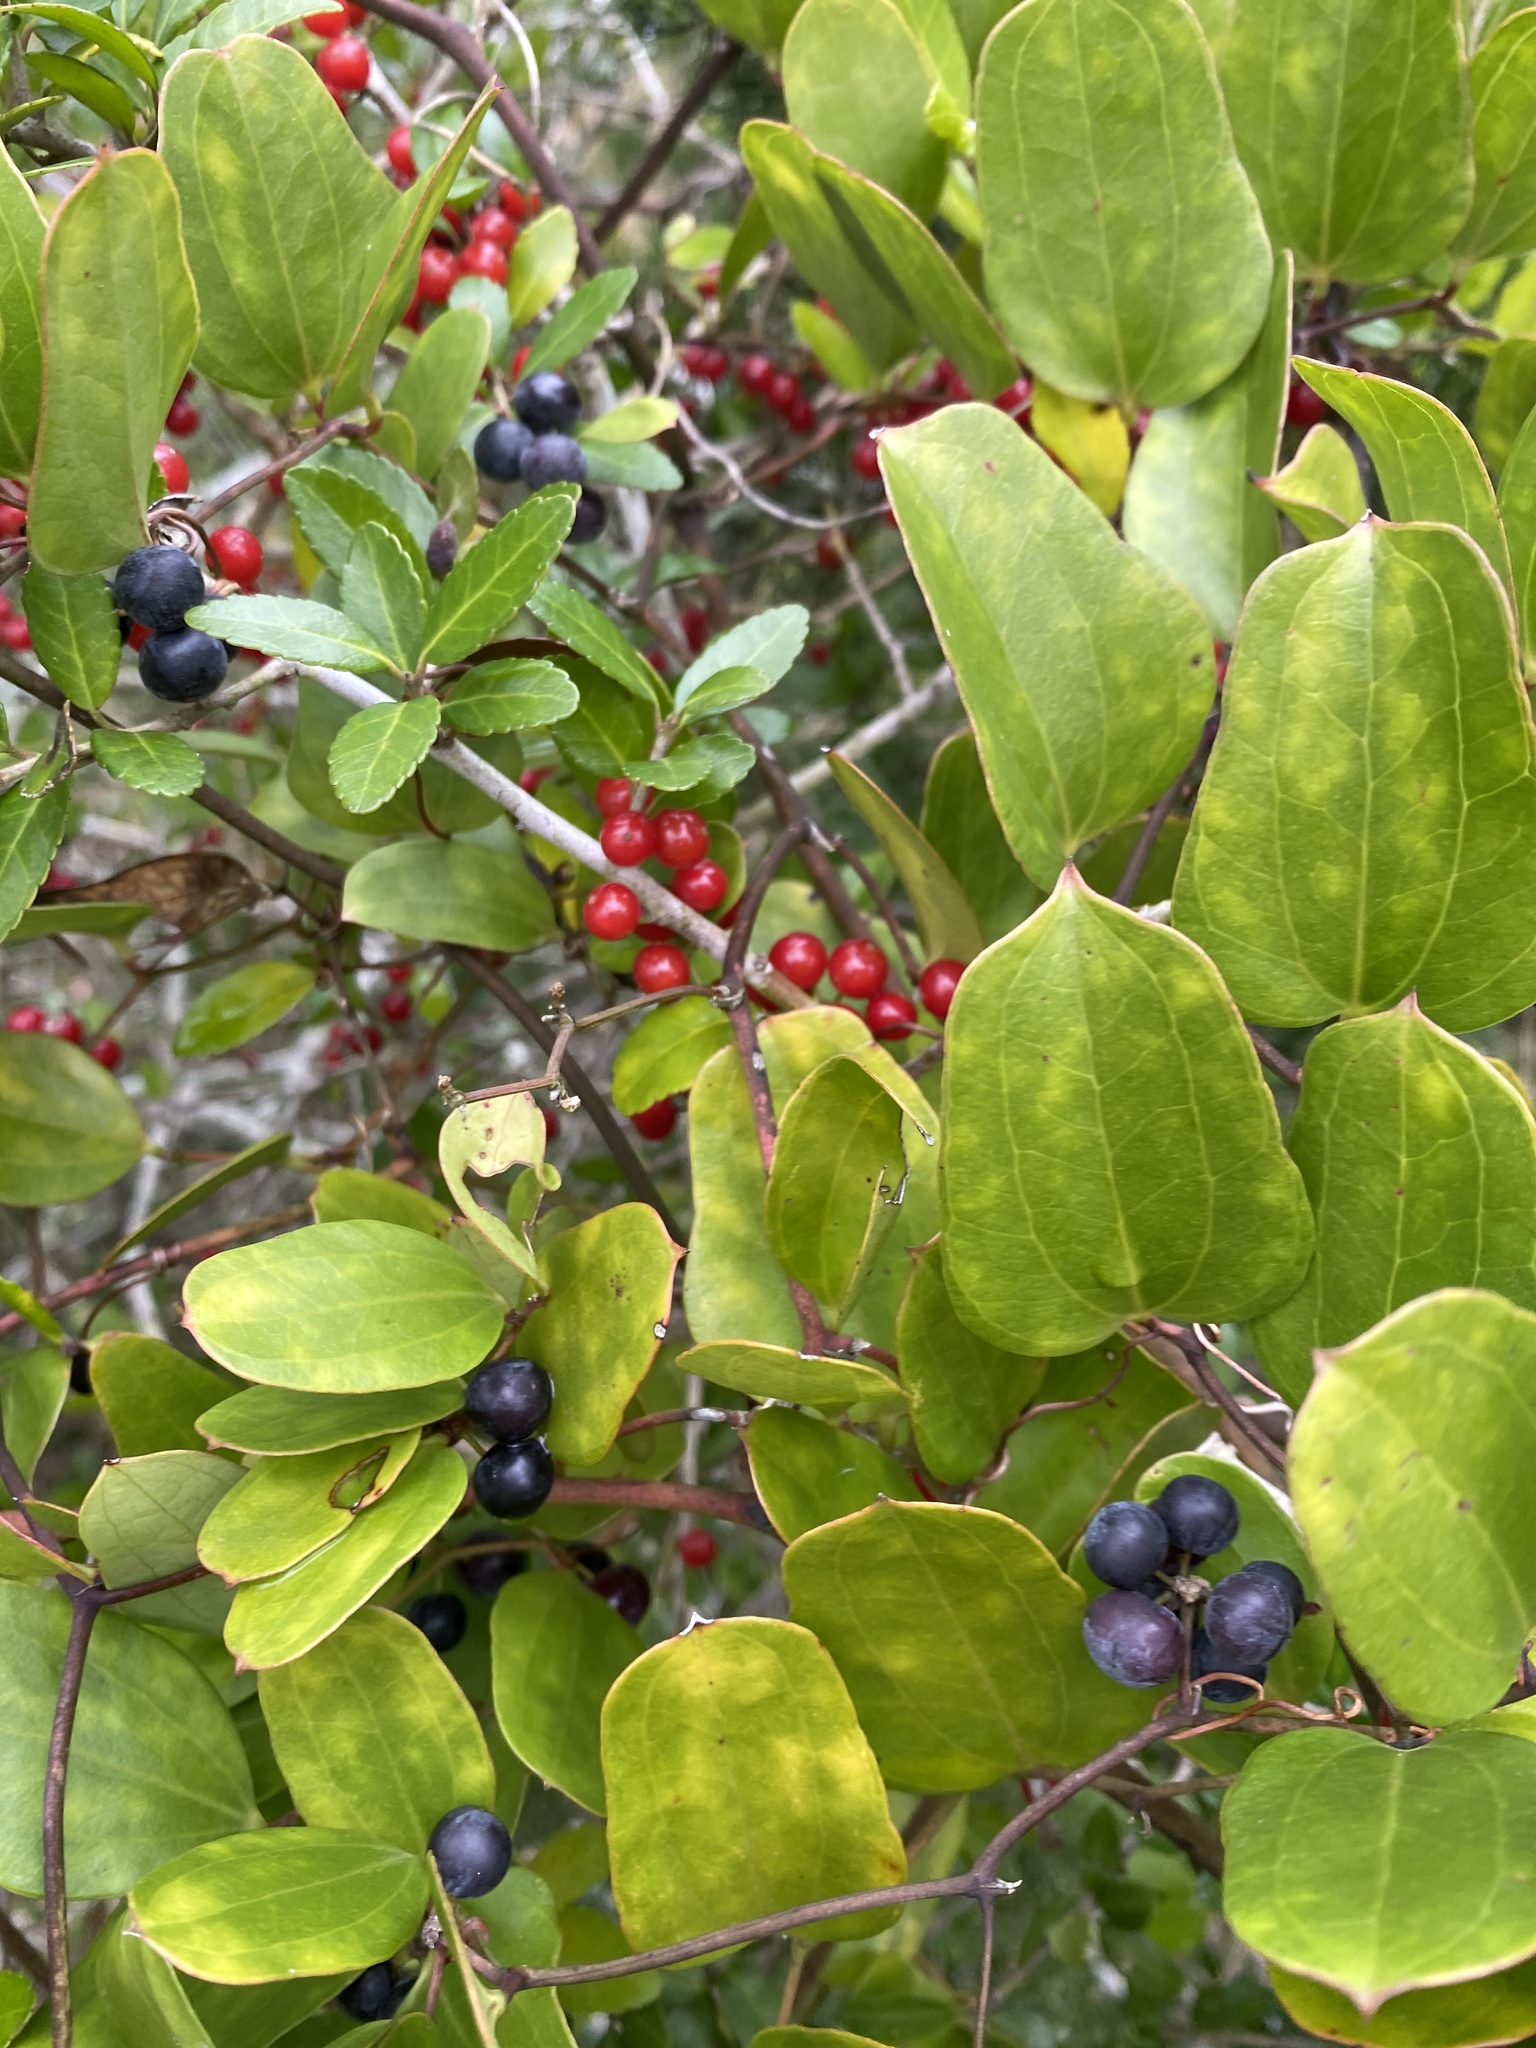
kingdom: Plantae
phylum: Tracheophyta
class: Magnoliopsida
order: Aquifoliales
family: Aquifoliaceae
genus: Ilex
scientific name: Ilex vomitoria
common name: Yaupon holly
